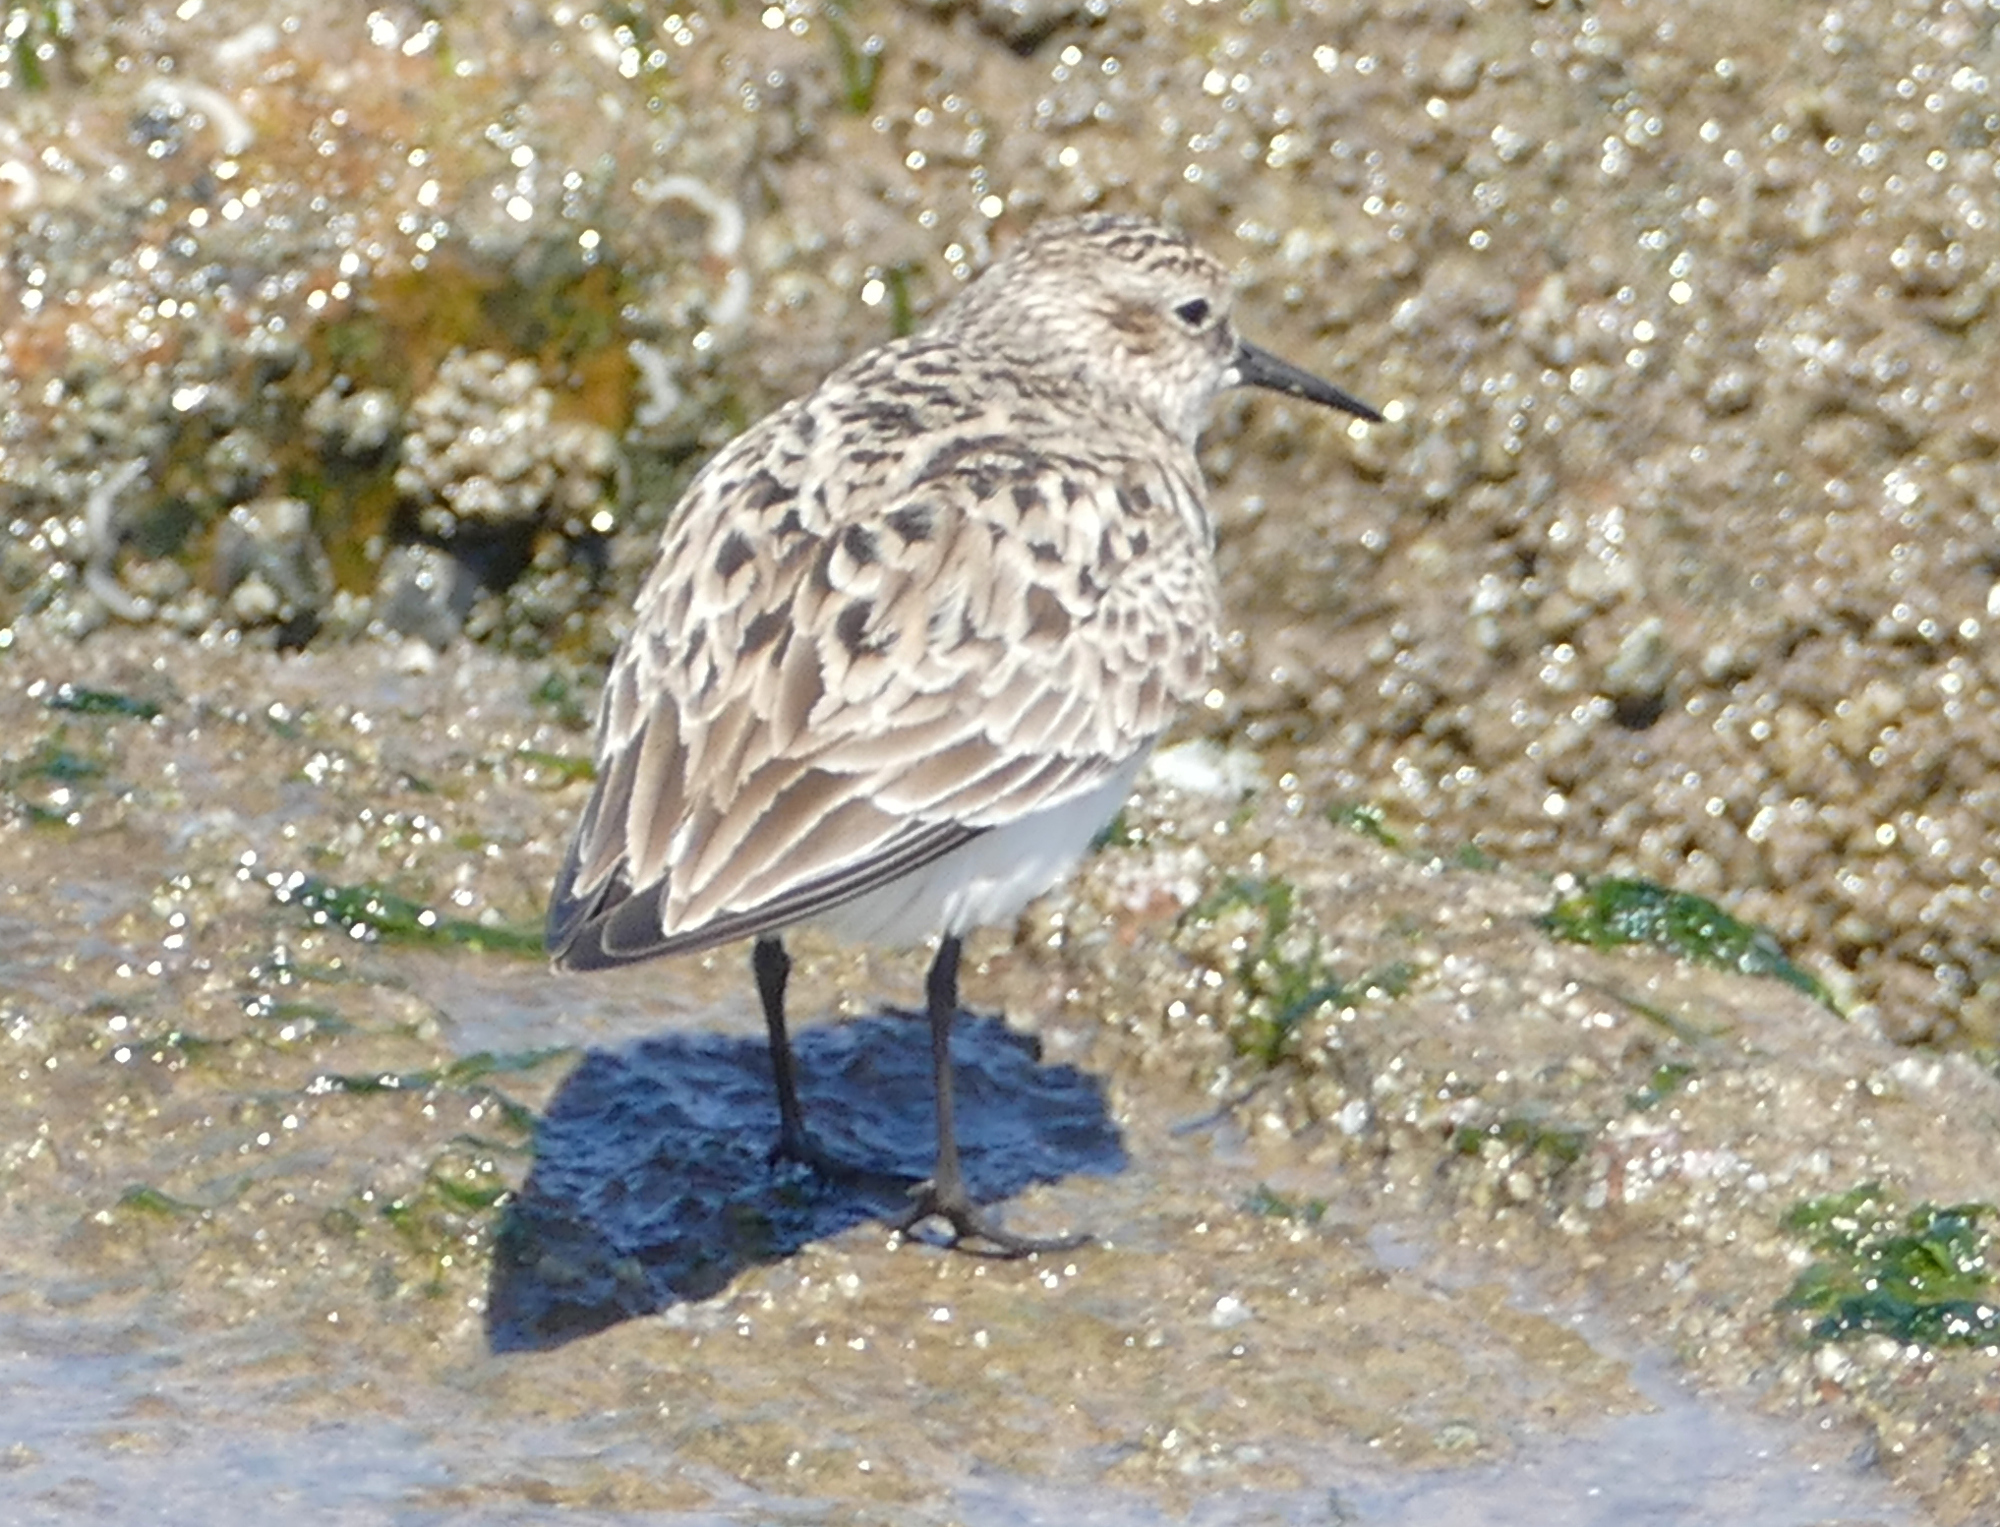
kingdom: Animalia
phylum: Chordata
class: Aves
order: Charadriiformes
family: Scolopacidae
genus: Calidris
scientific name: Calidris bairdii
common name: Baird's sandpiper
